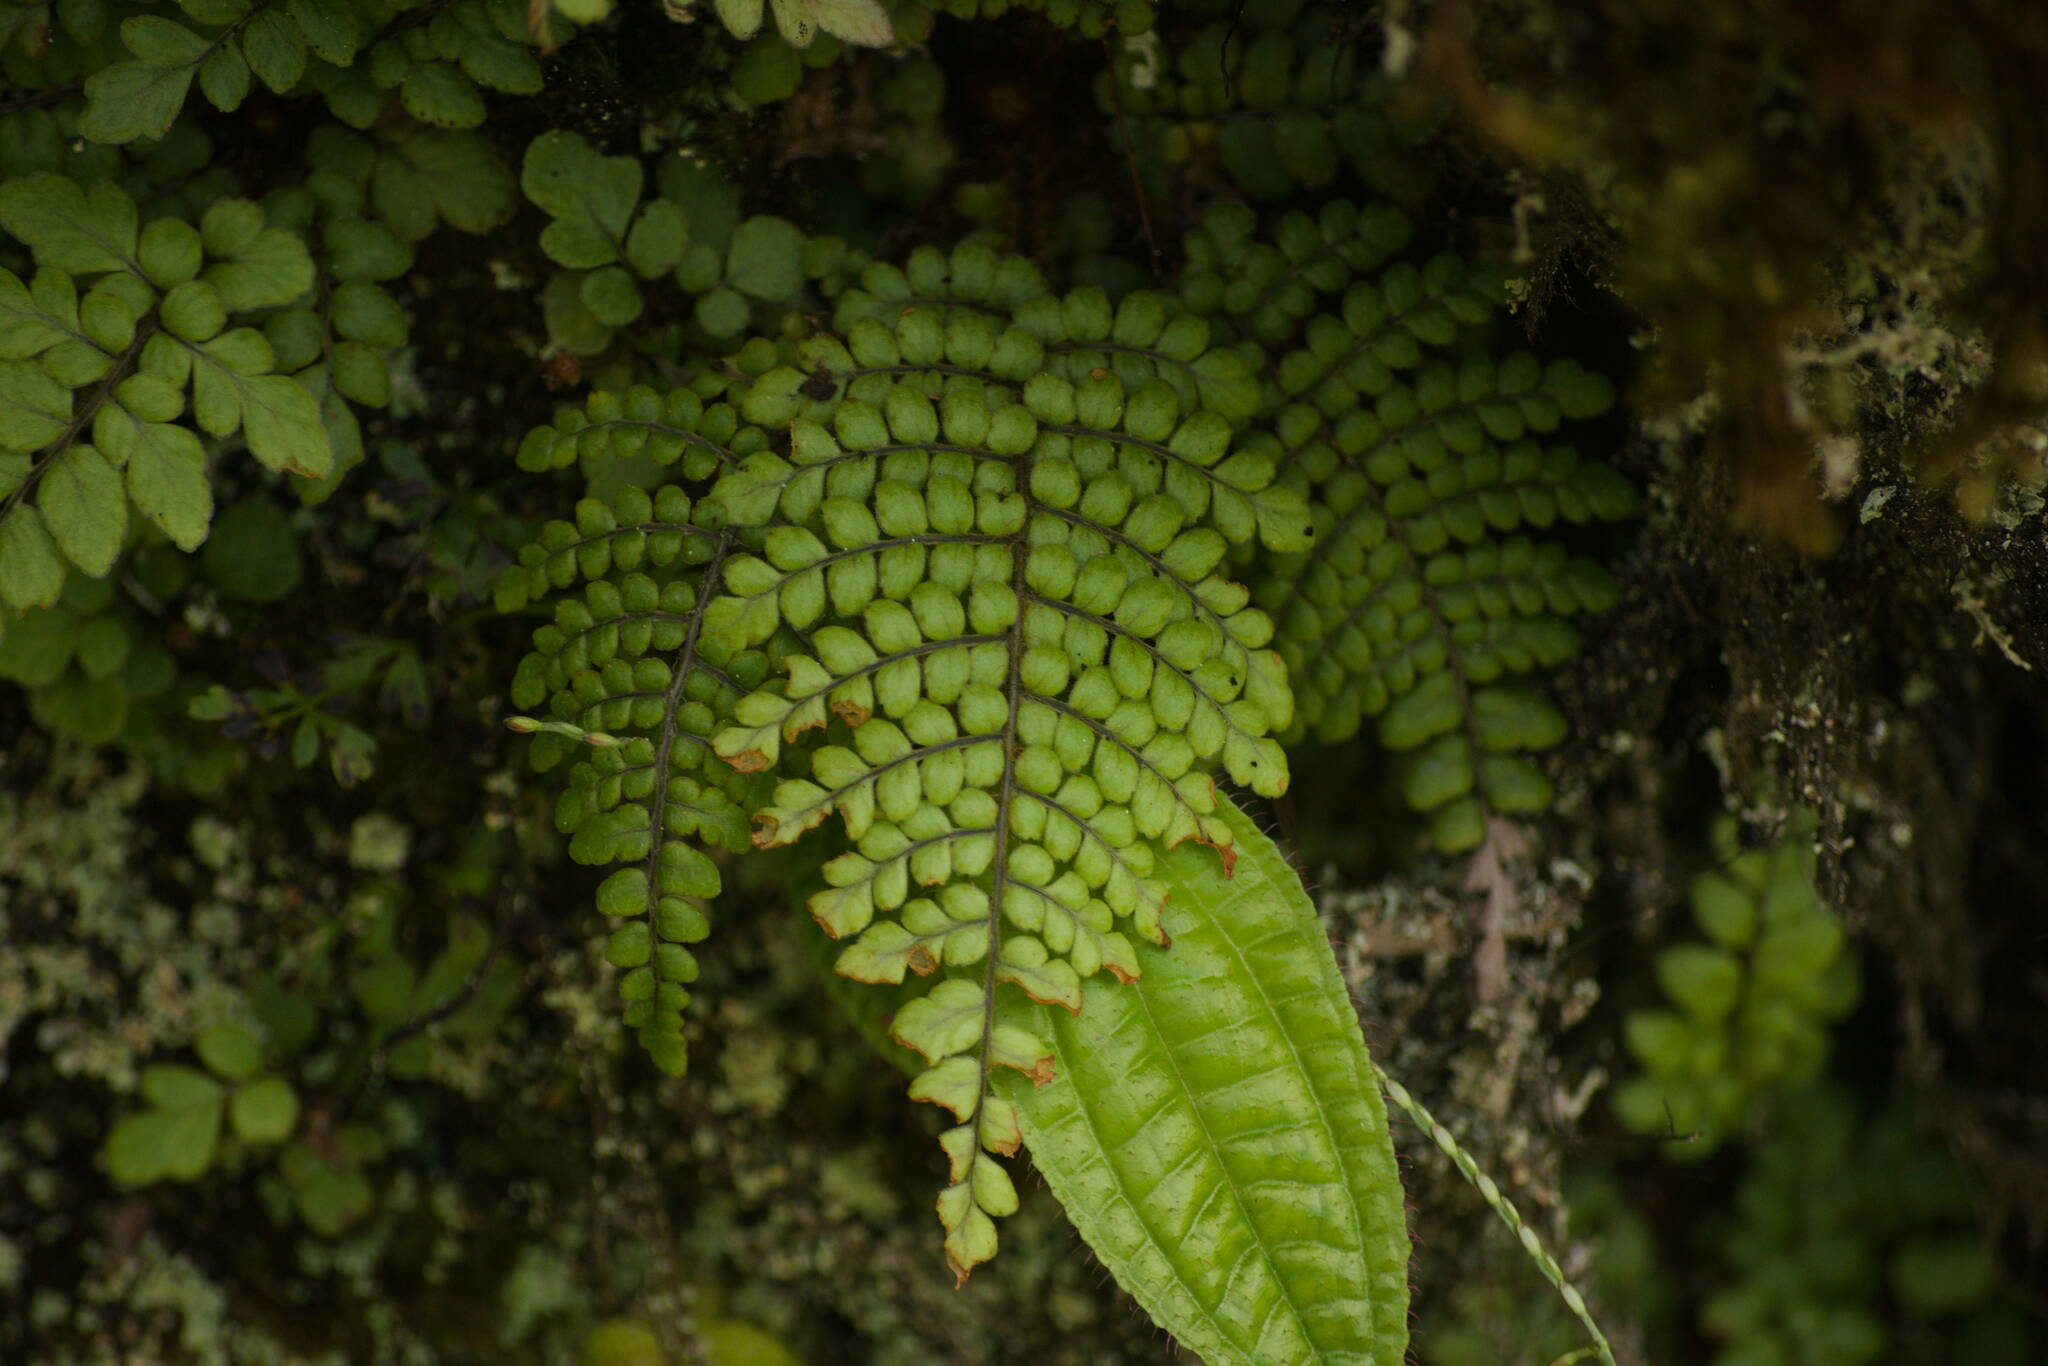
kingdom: Plantae
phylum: Tracheophyta
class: Polypodiopsida
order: Polypodiales
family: Blechnaceae
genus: Sadleria
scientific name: Sadleria squarrosa
